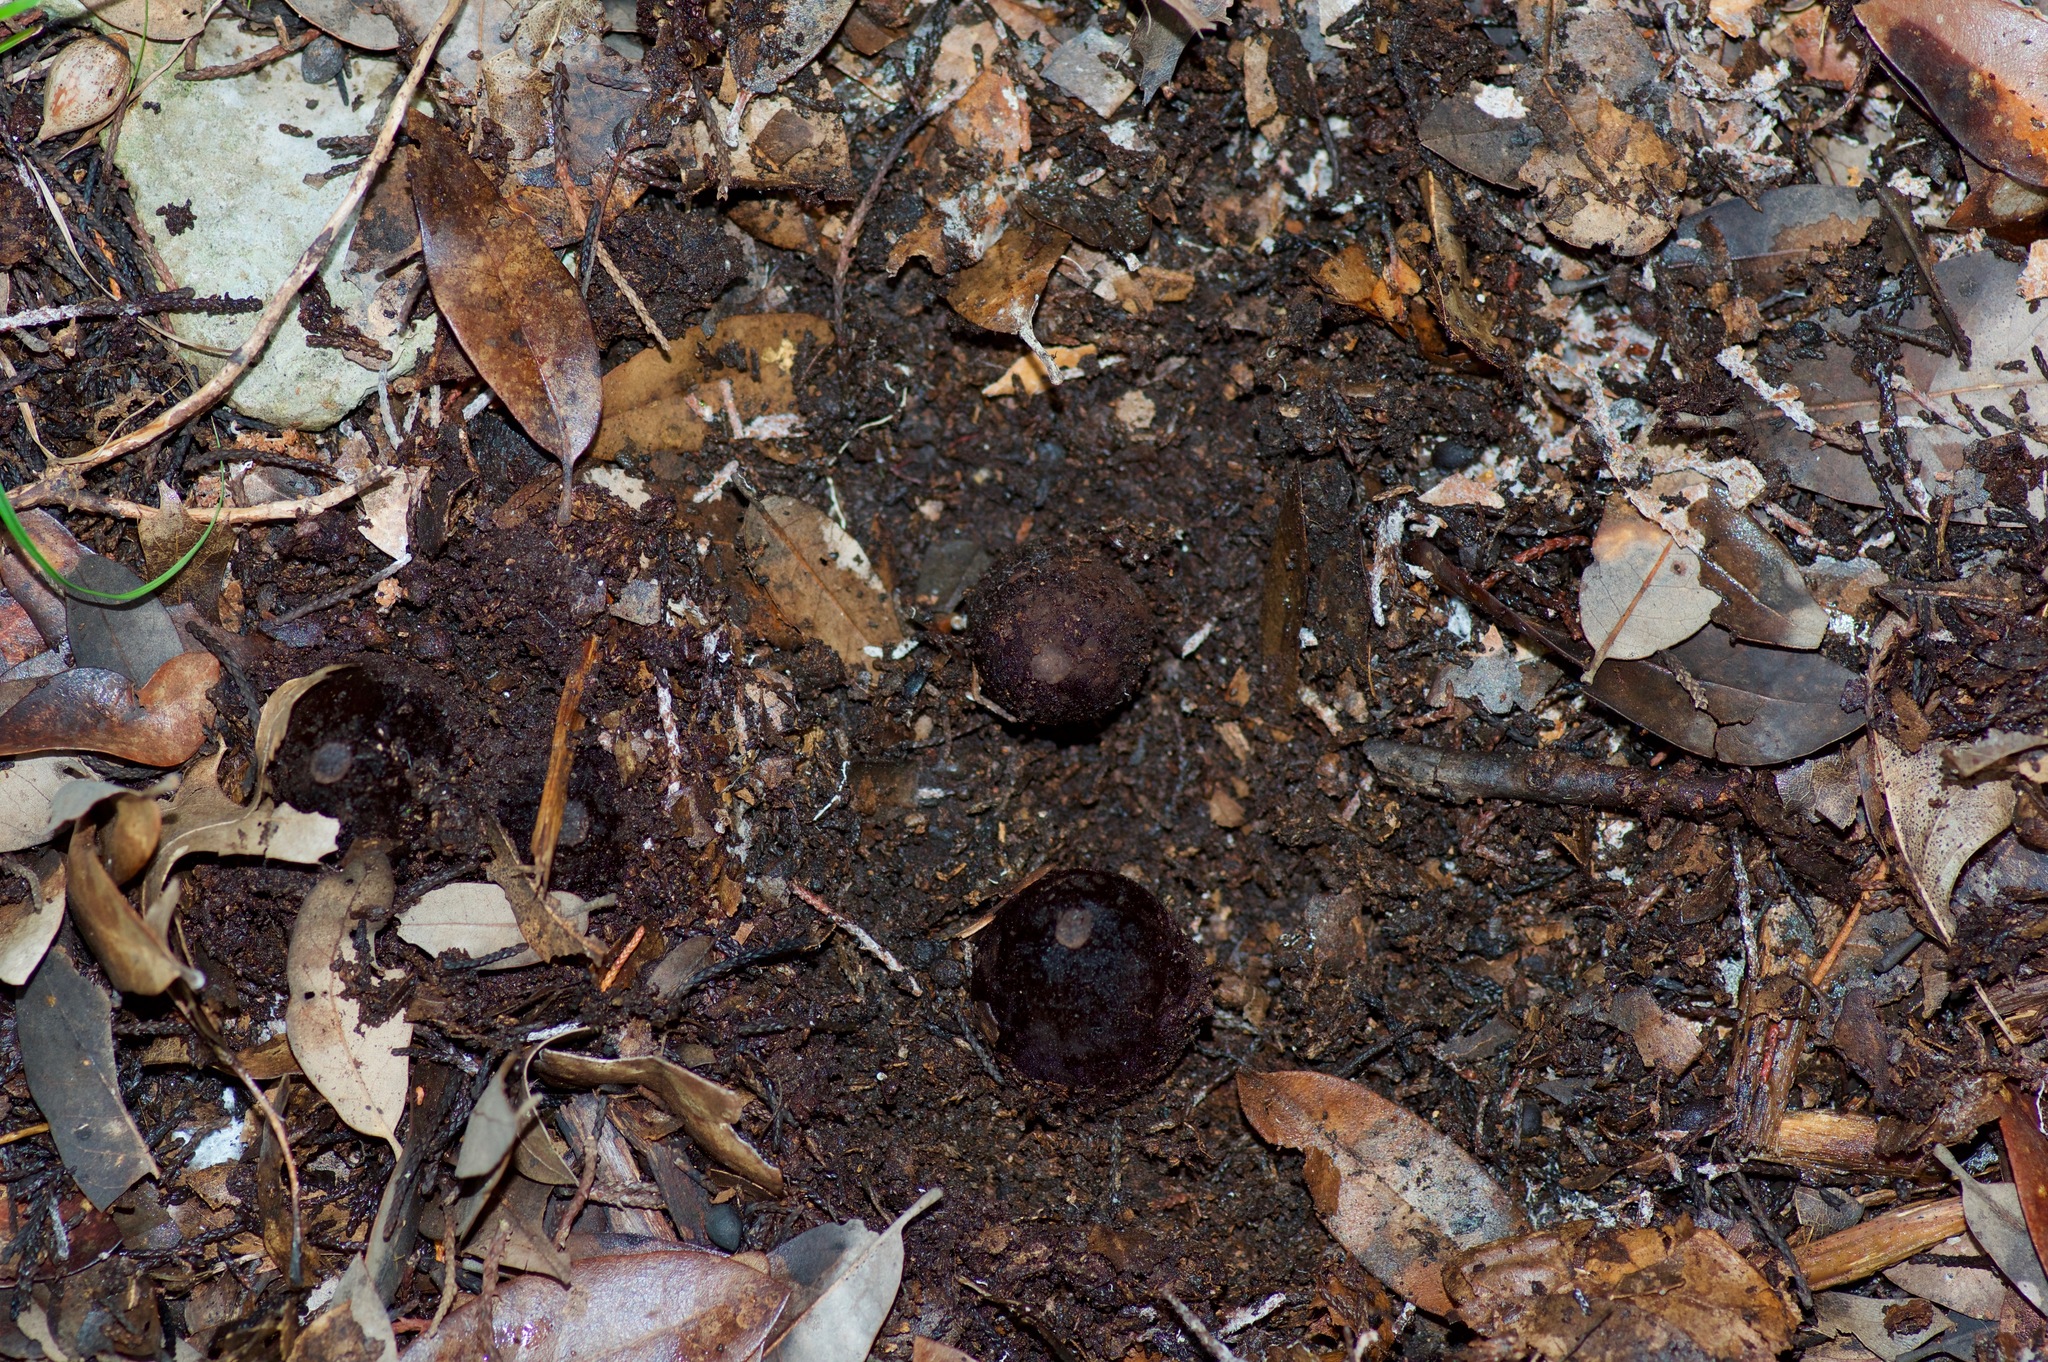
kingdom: Fungi
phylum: Ascomycota
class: Pezizomycetes
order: Pezizales
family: Chorioactidaceae
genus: Chorioactis
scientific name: Chorioactis geaster
